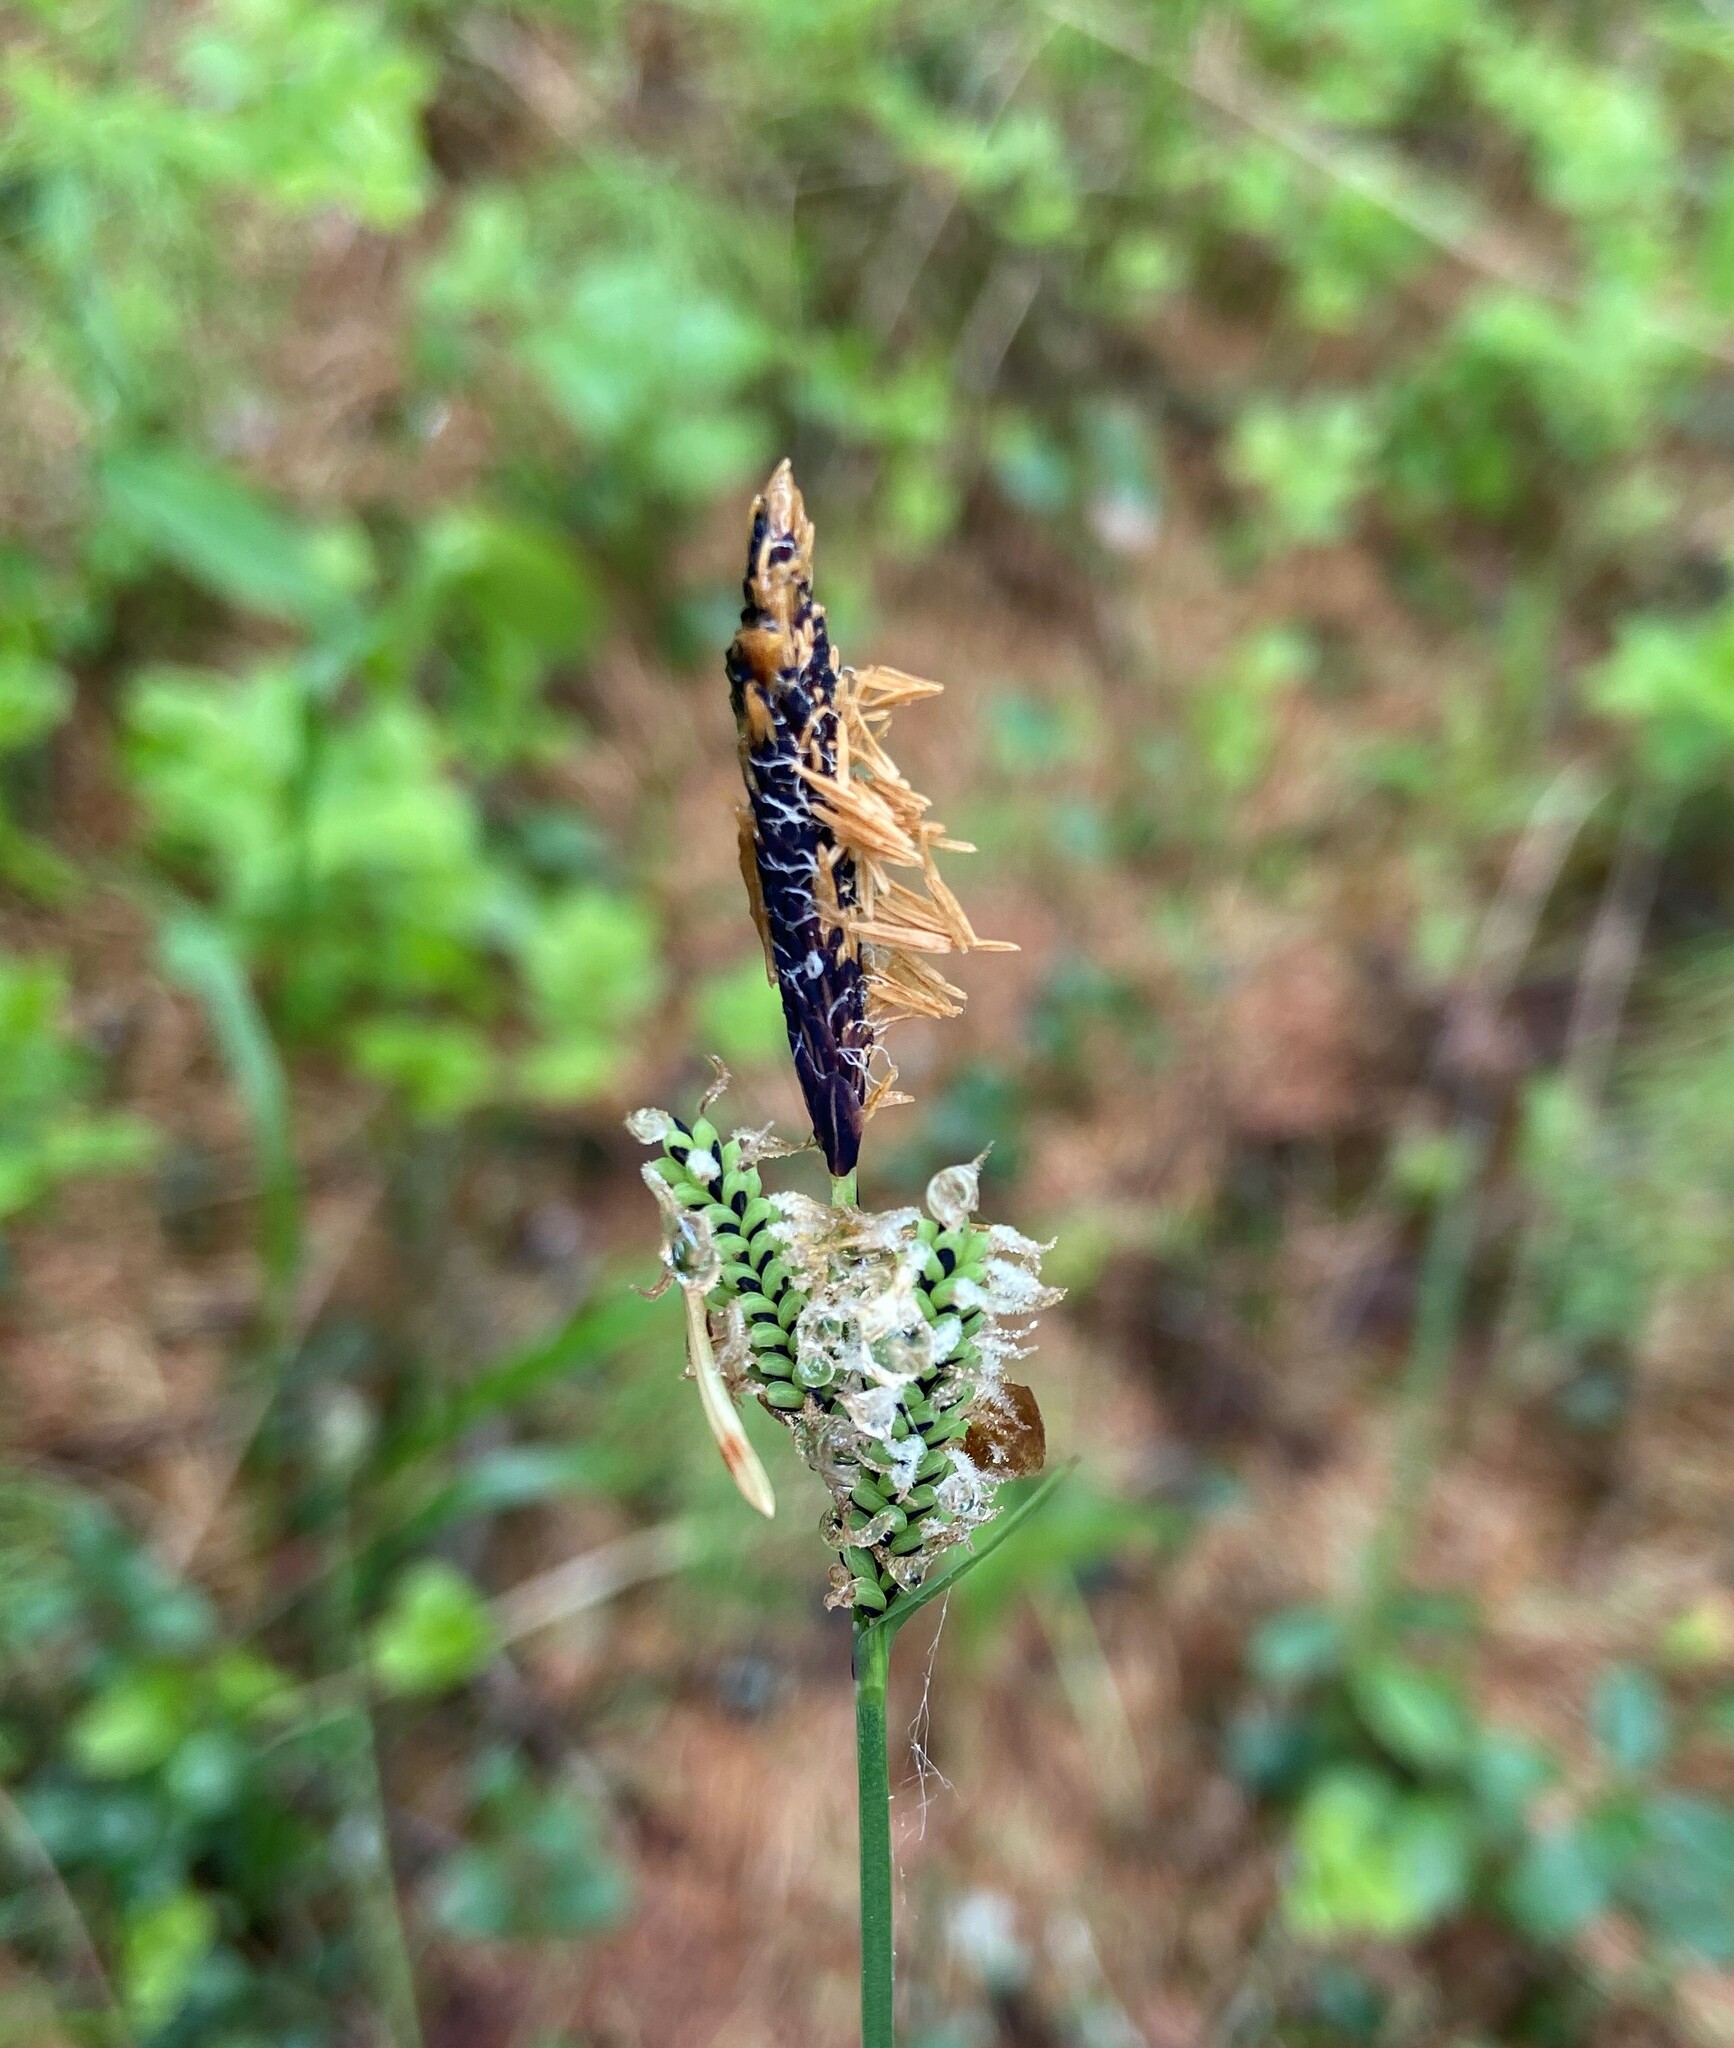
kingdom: Plantae
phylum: Tracheophyta
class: Liliopsida
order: Poales
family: Cyperaceae
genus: Carex
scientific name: Carex nigra
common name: Common sedge
